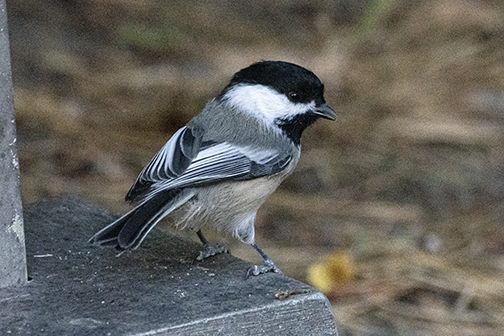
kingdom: Animalia
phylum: Chordata
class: Aves
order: Passeriformes
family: Paridae
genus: Poecile
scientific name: Poecile atricapillus
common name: Black-capped chickadee
